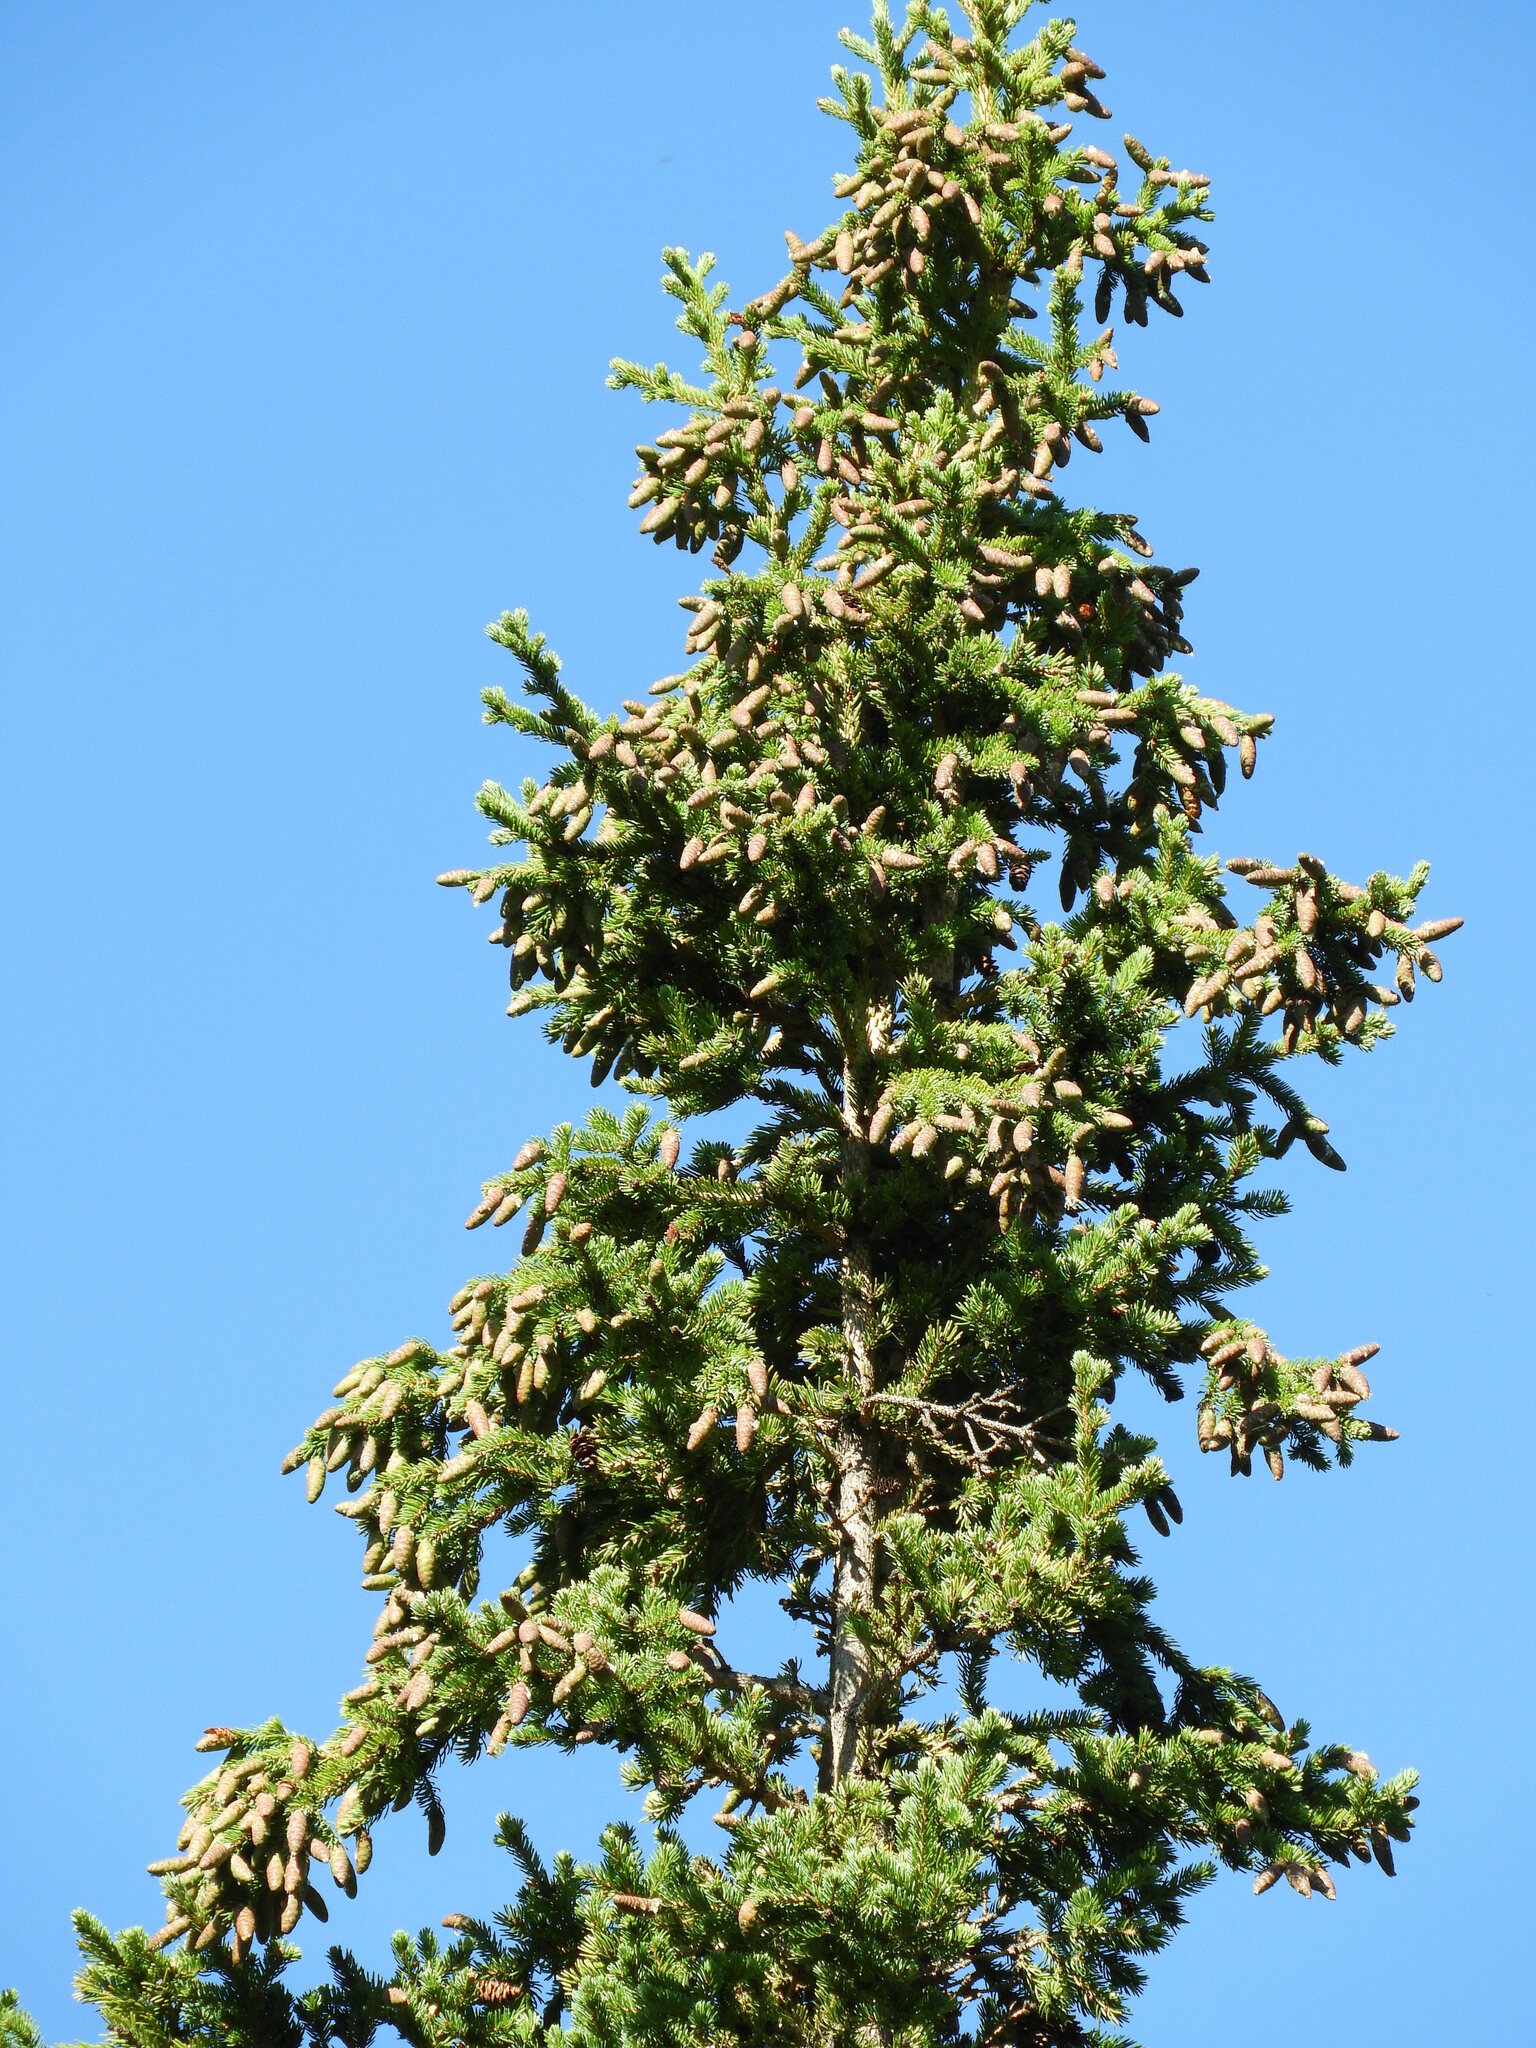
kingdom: Plantae
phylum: Tracheophyta
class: Pinopsida
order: Pinales
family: Pinaceae
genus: Picea
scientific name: Picea glauca
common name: White spruce
